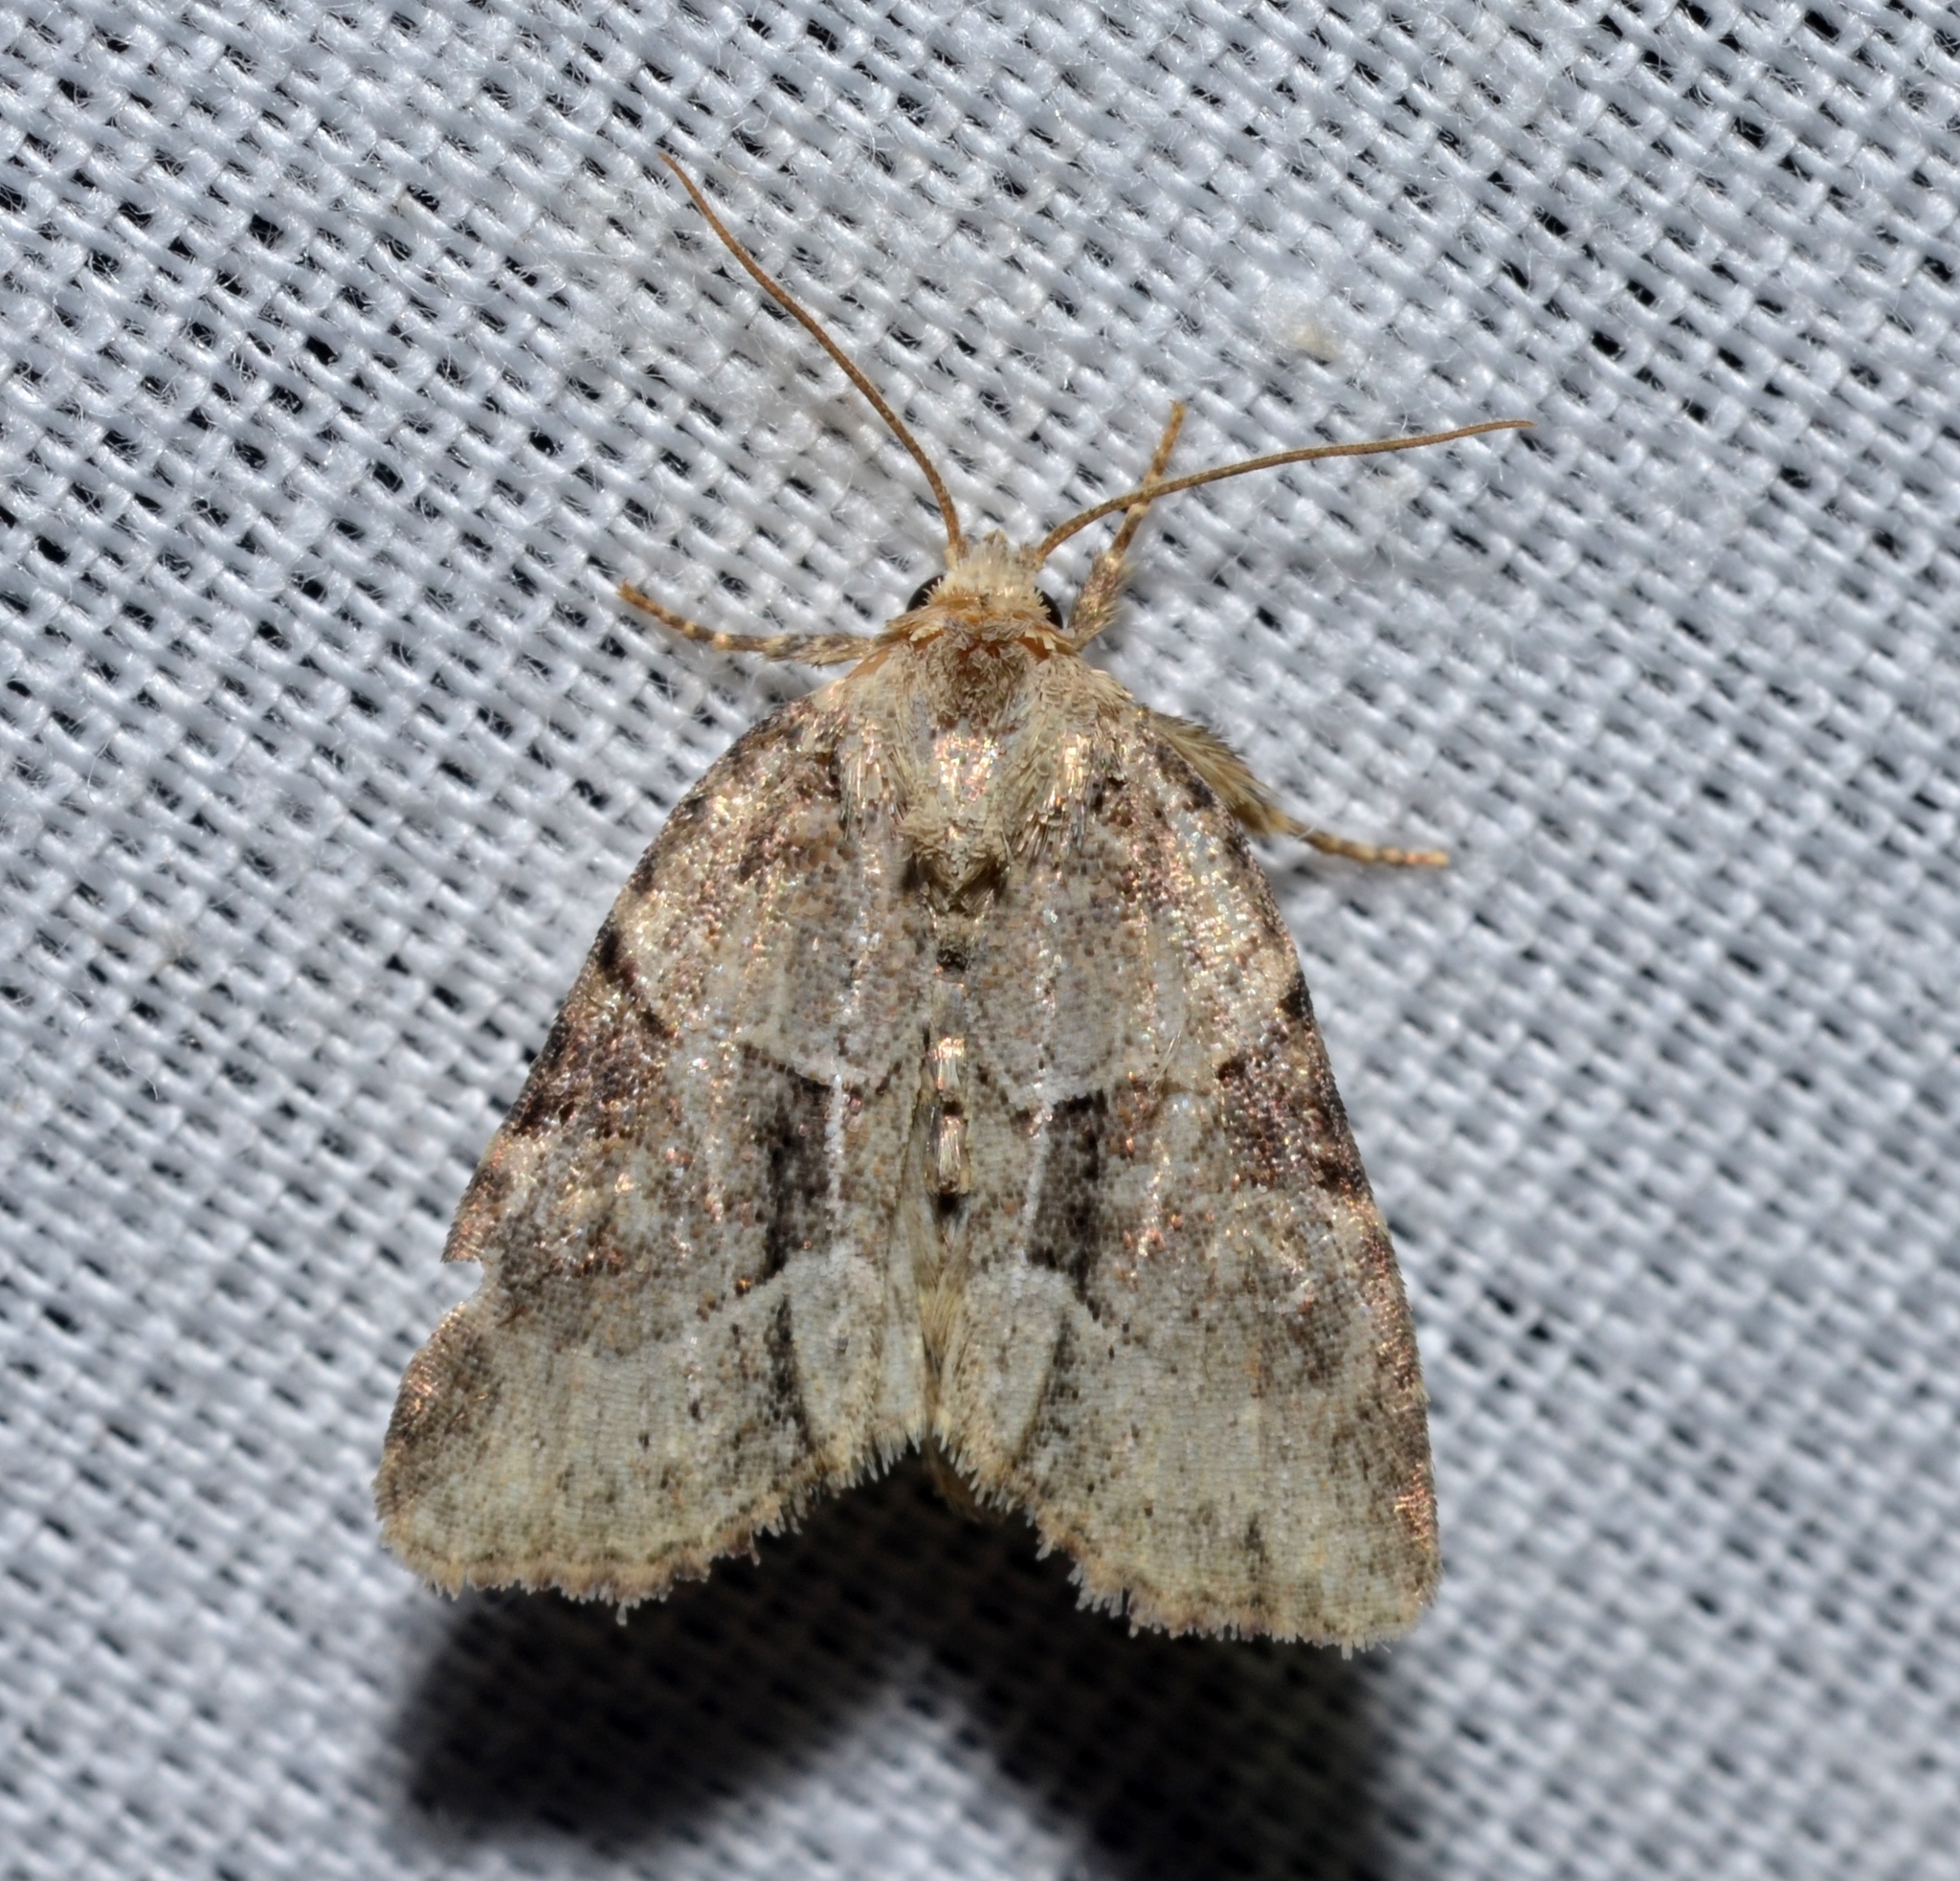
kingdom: Animalia
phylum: Arthropoda
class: Insecta
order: Lepidoptera
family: Noctuidae
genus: Neoligia
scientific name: Neoligia exhausta
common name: Exhausted brocade
